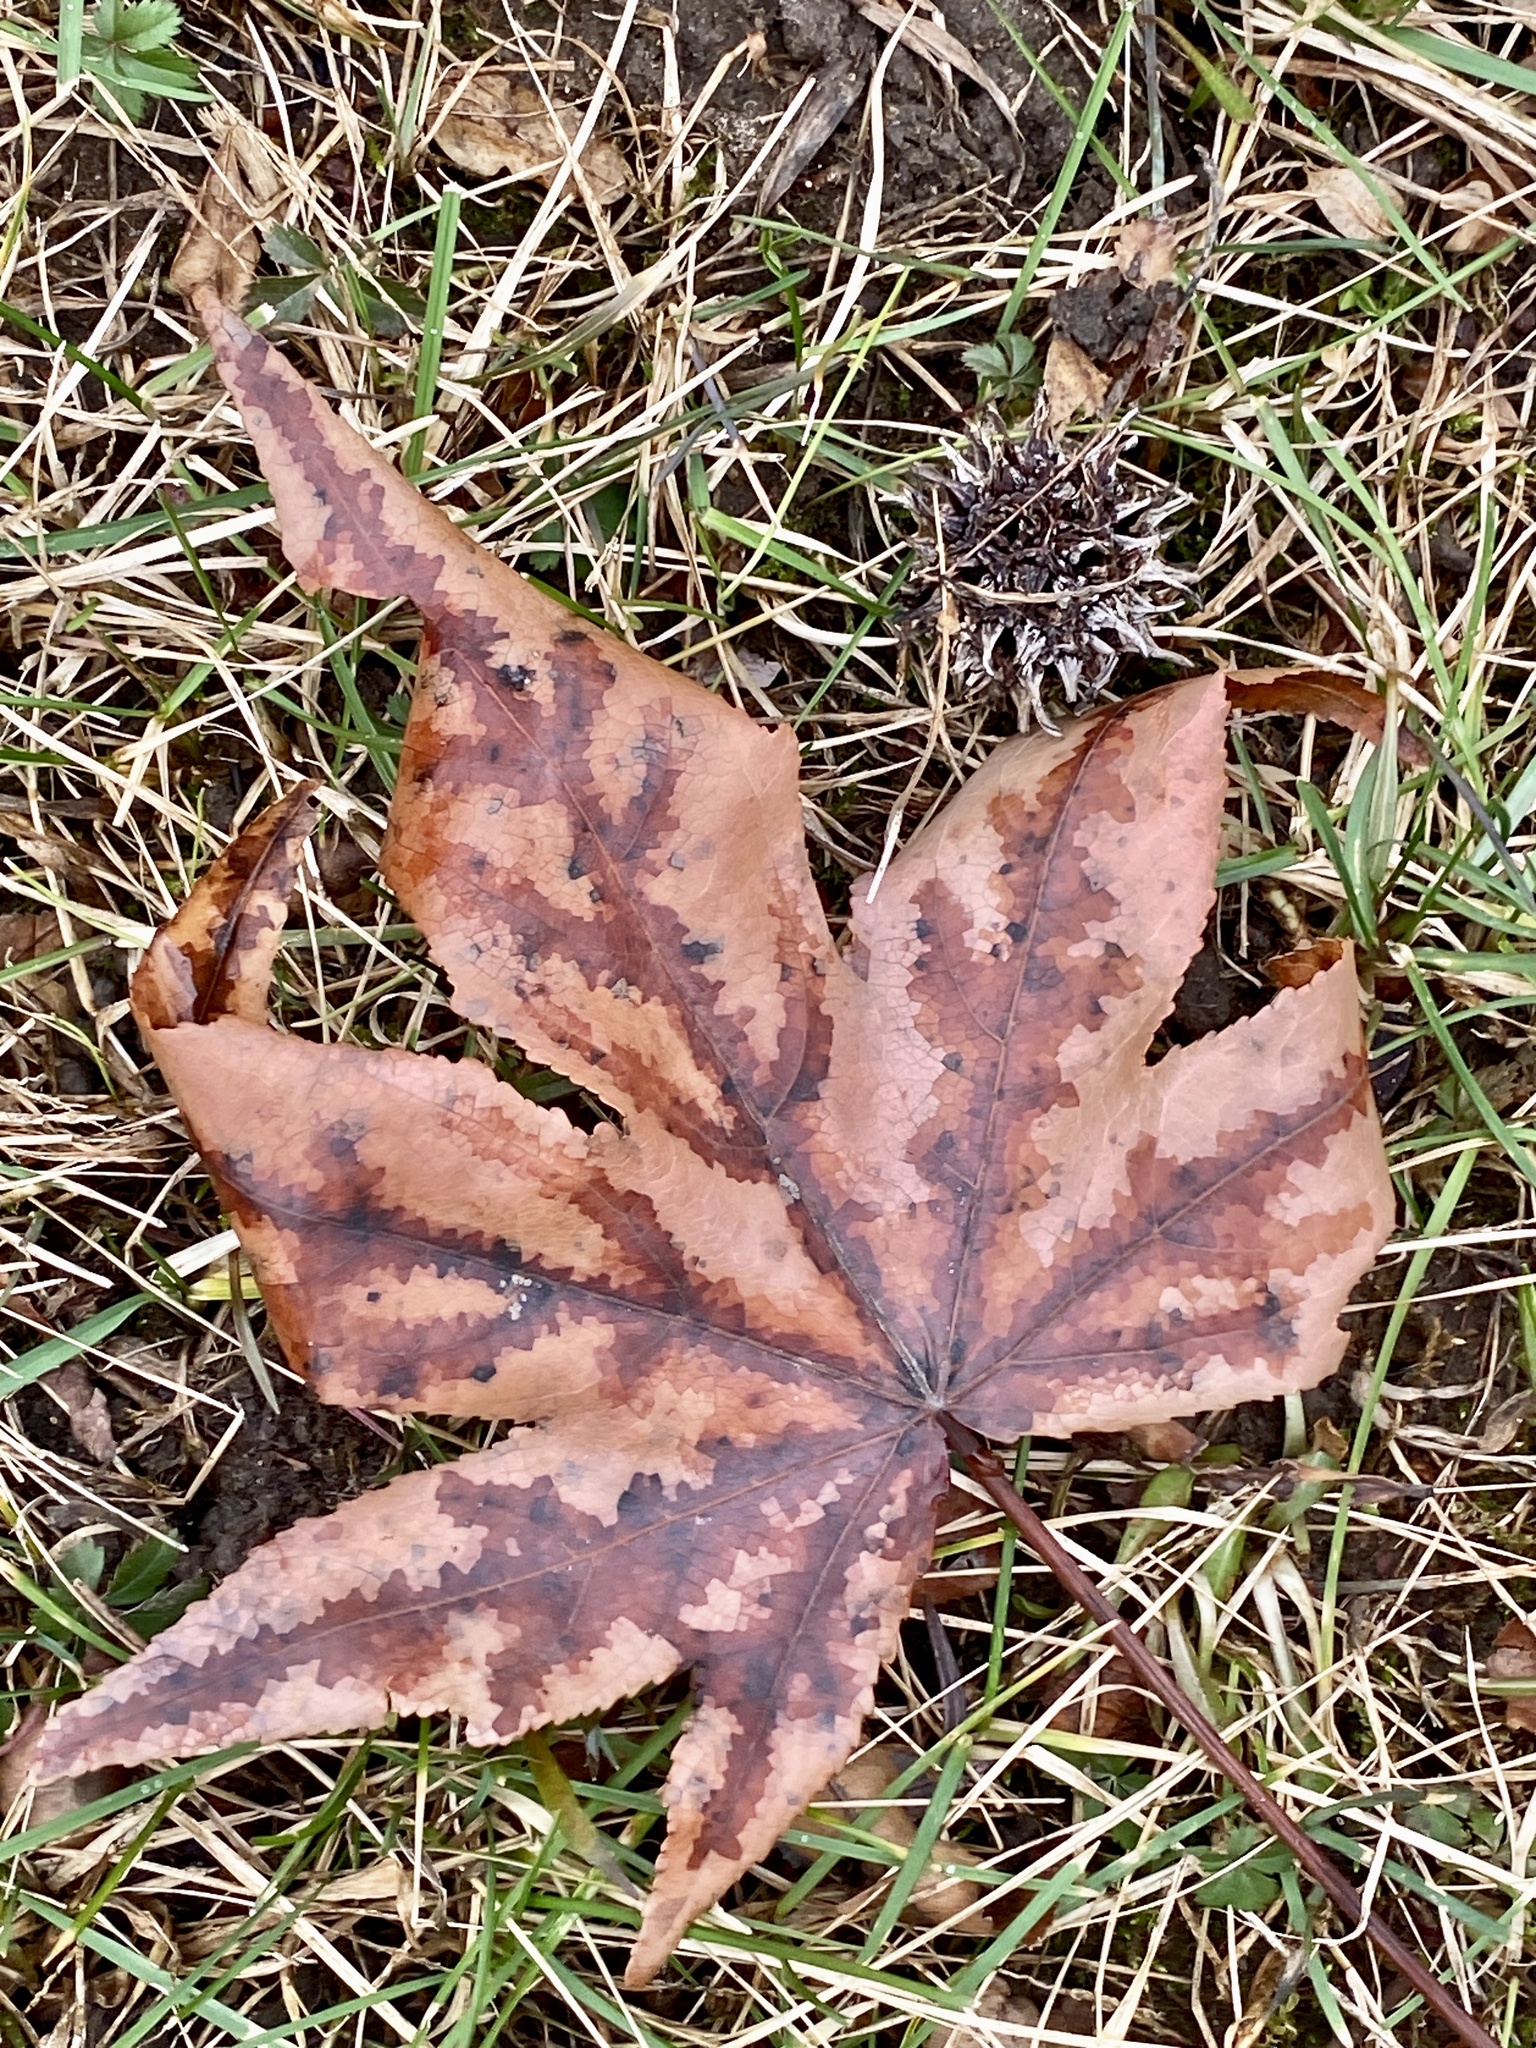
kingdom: Plantae
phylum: Tracheophyta
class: Magnoliopsida
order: Saxifragales
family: Altingiaceae
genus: Liquidambar
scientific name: Liquidambar styraciflua
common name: Sweet gum
